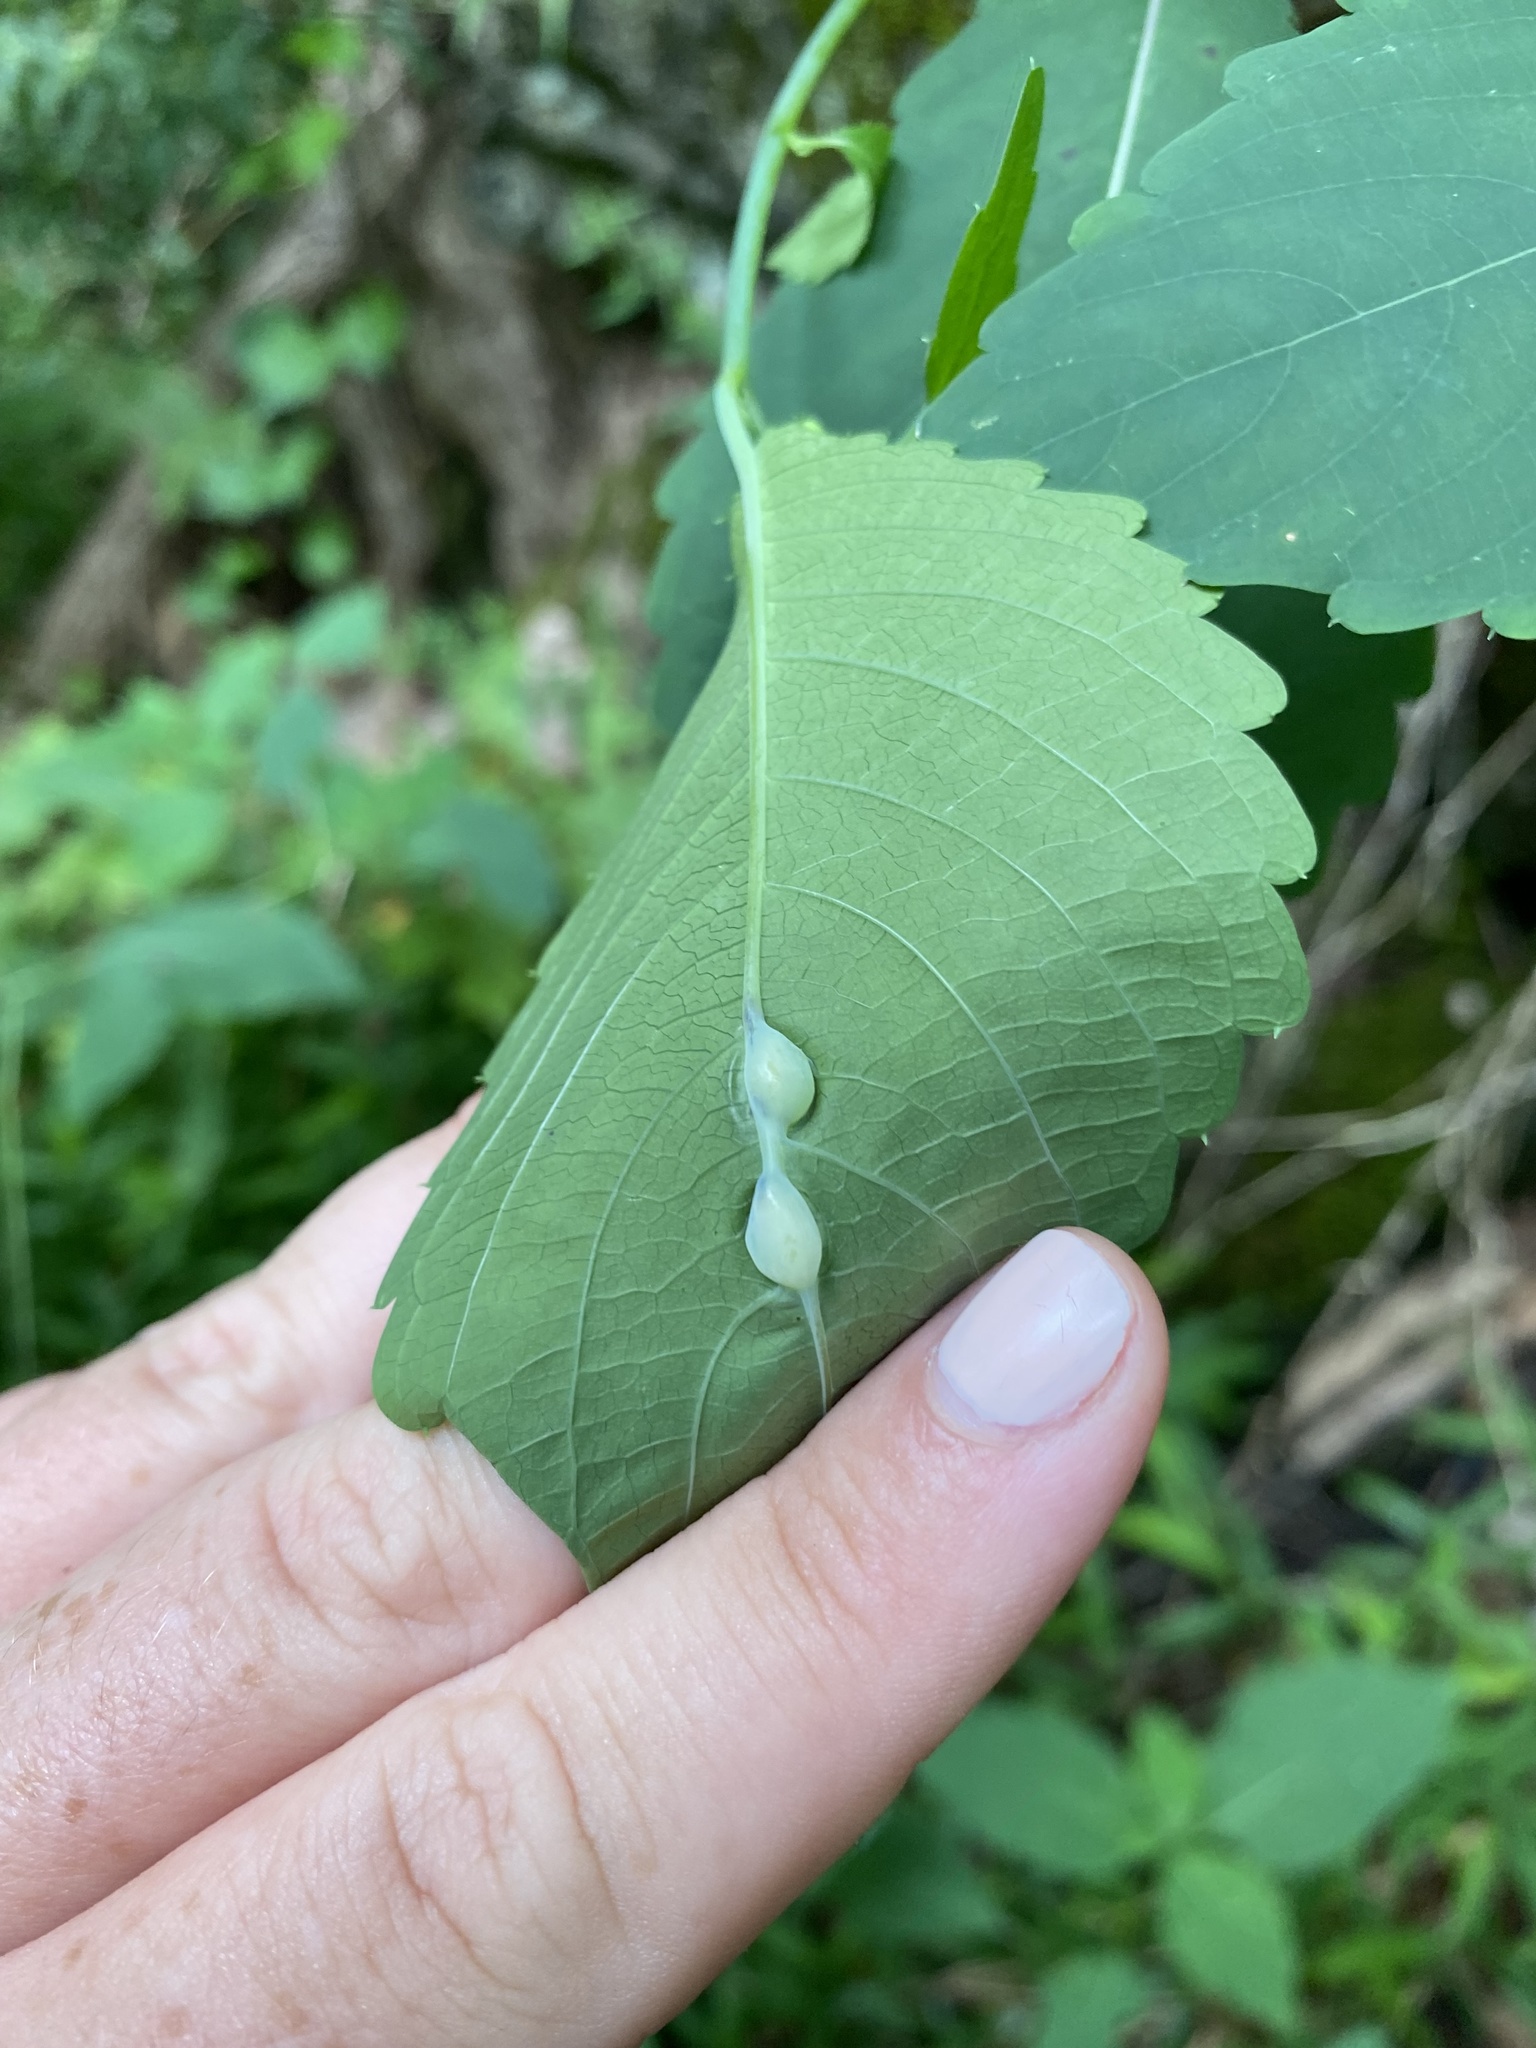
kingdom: Animalia
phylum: Arthropoda
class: Insecta
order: Diptera
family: Cecidomyiidae
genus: Neolasioptera
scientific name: Neolasioptera impatientifolia
